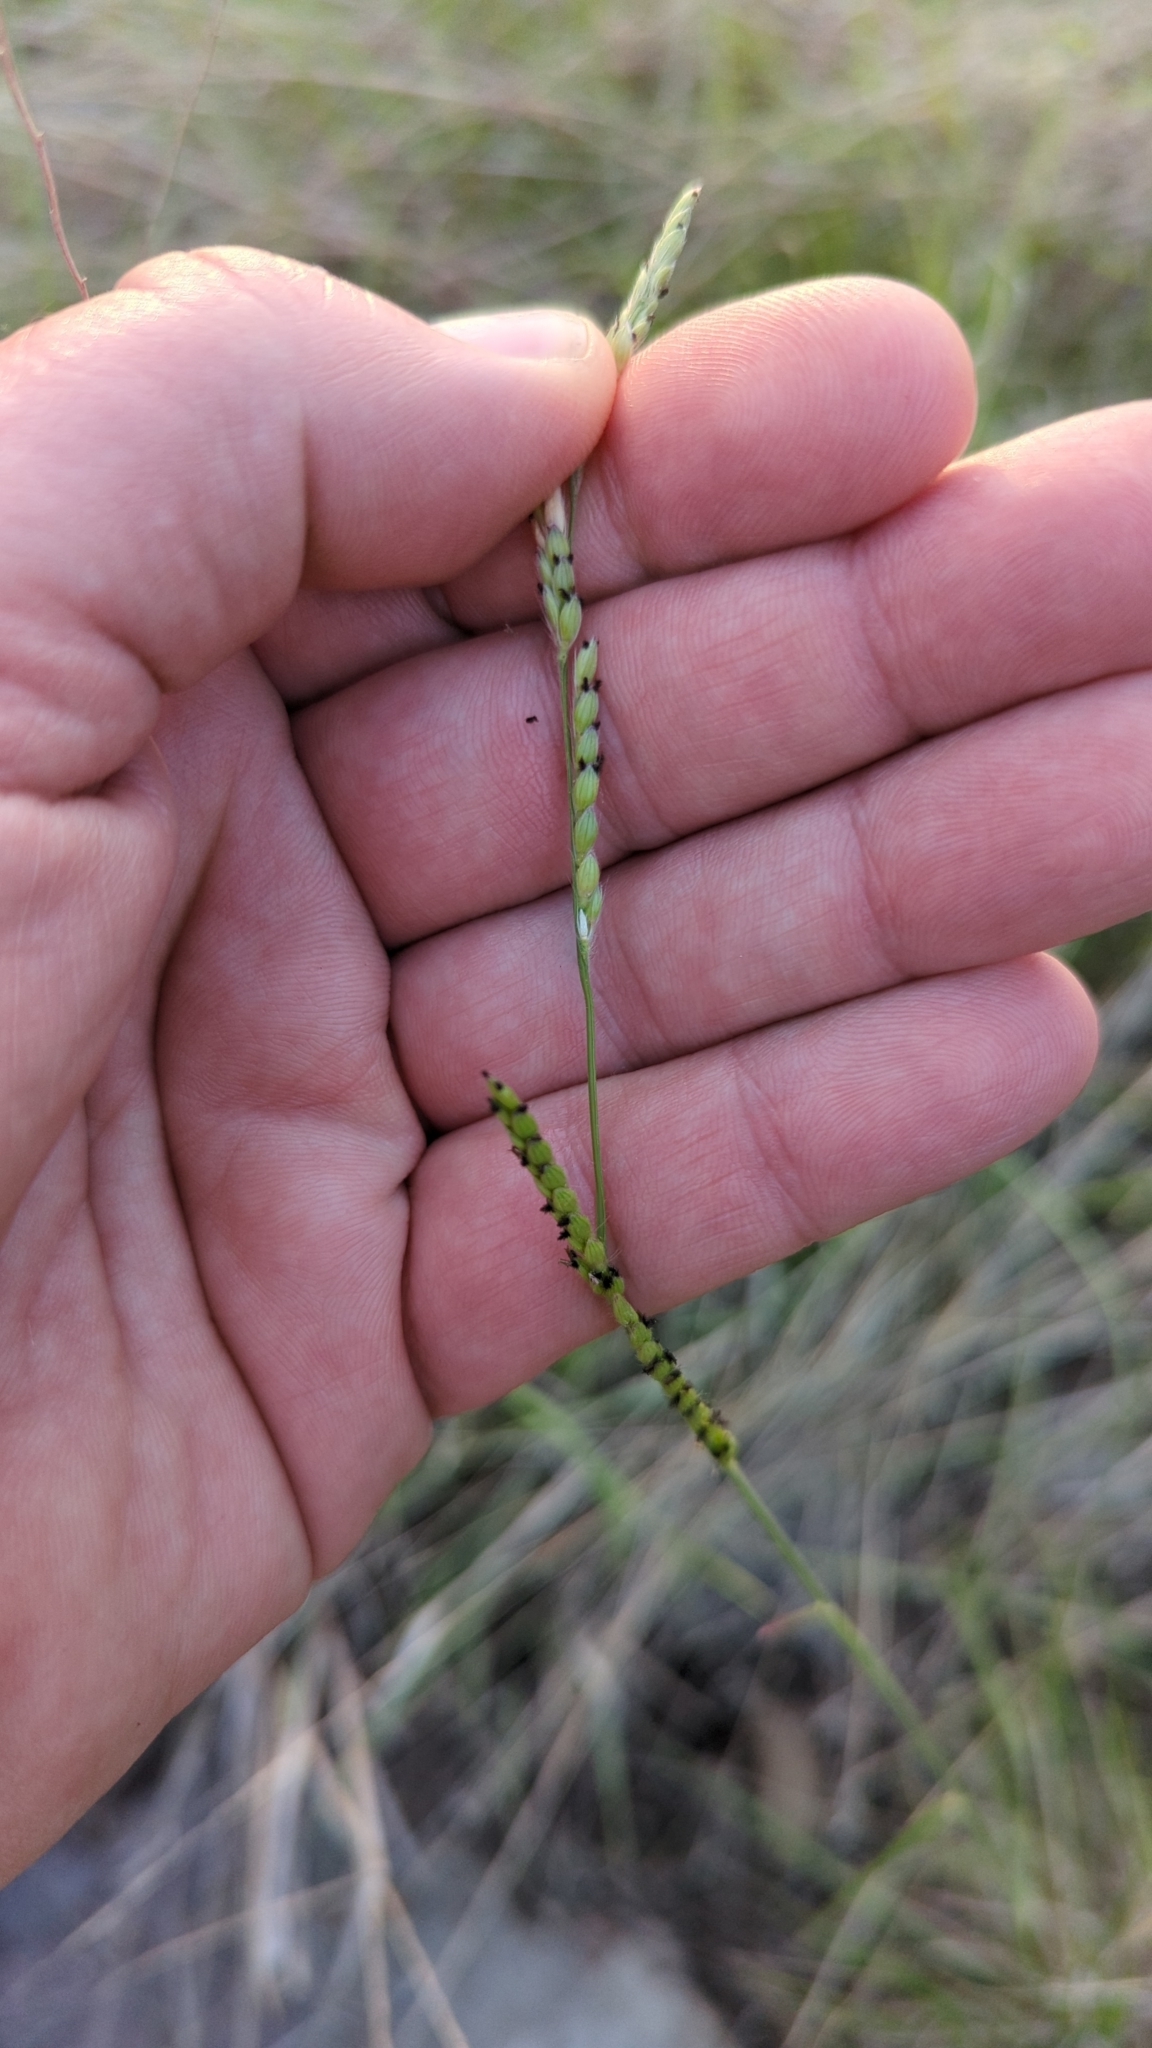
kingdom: Plantae
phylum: Tracheophyta
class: Liliopsida
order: Poales
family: Poaceae
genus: Eriochloa
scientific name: Eriochloa sericea
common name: Texas cup grass
